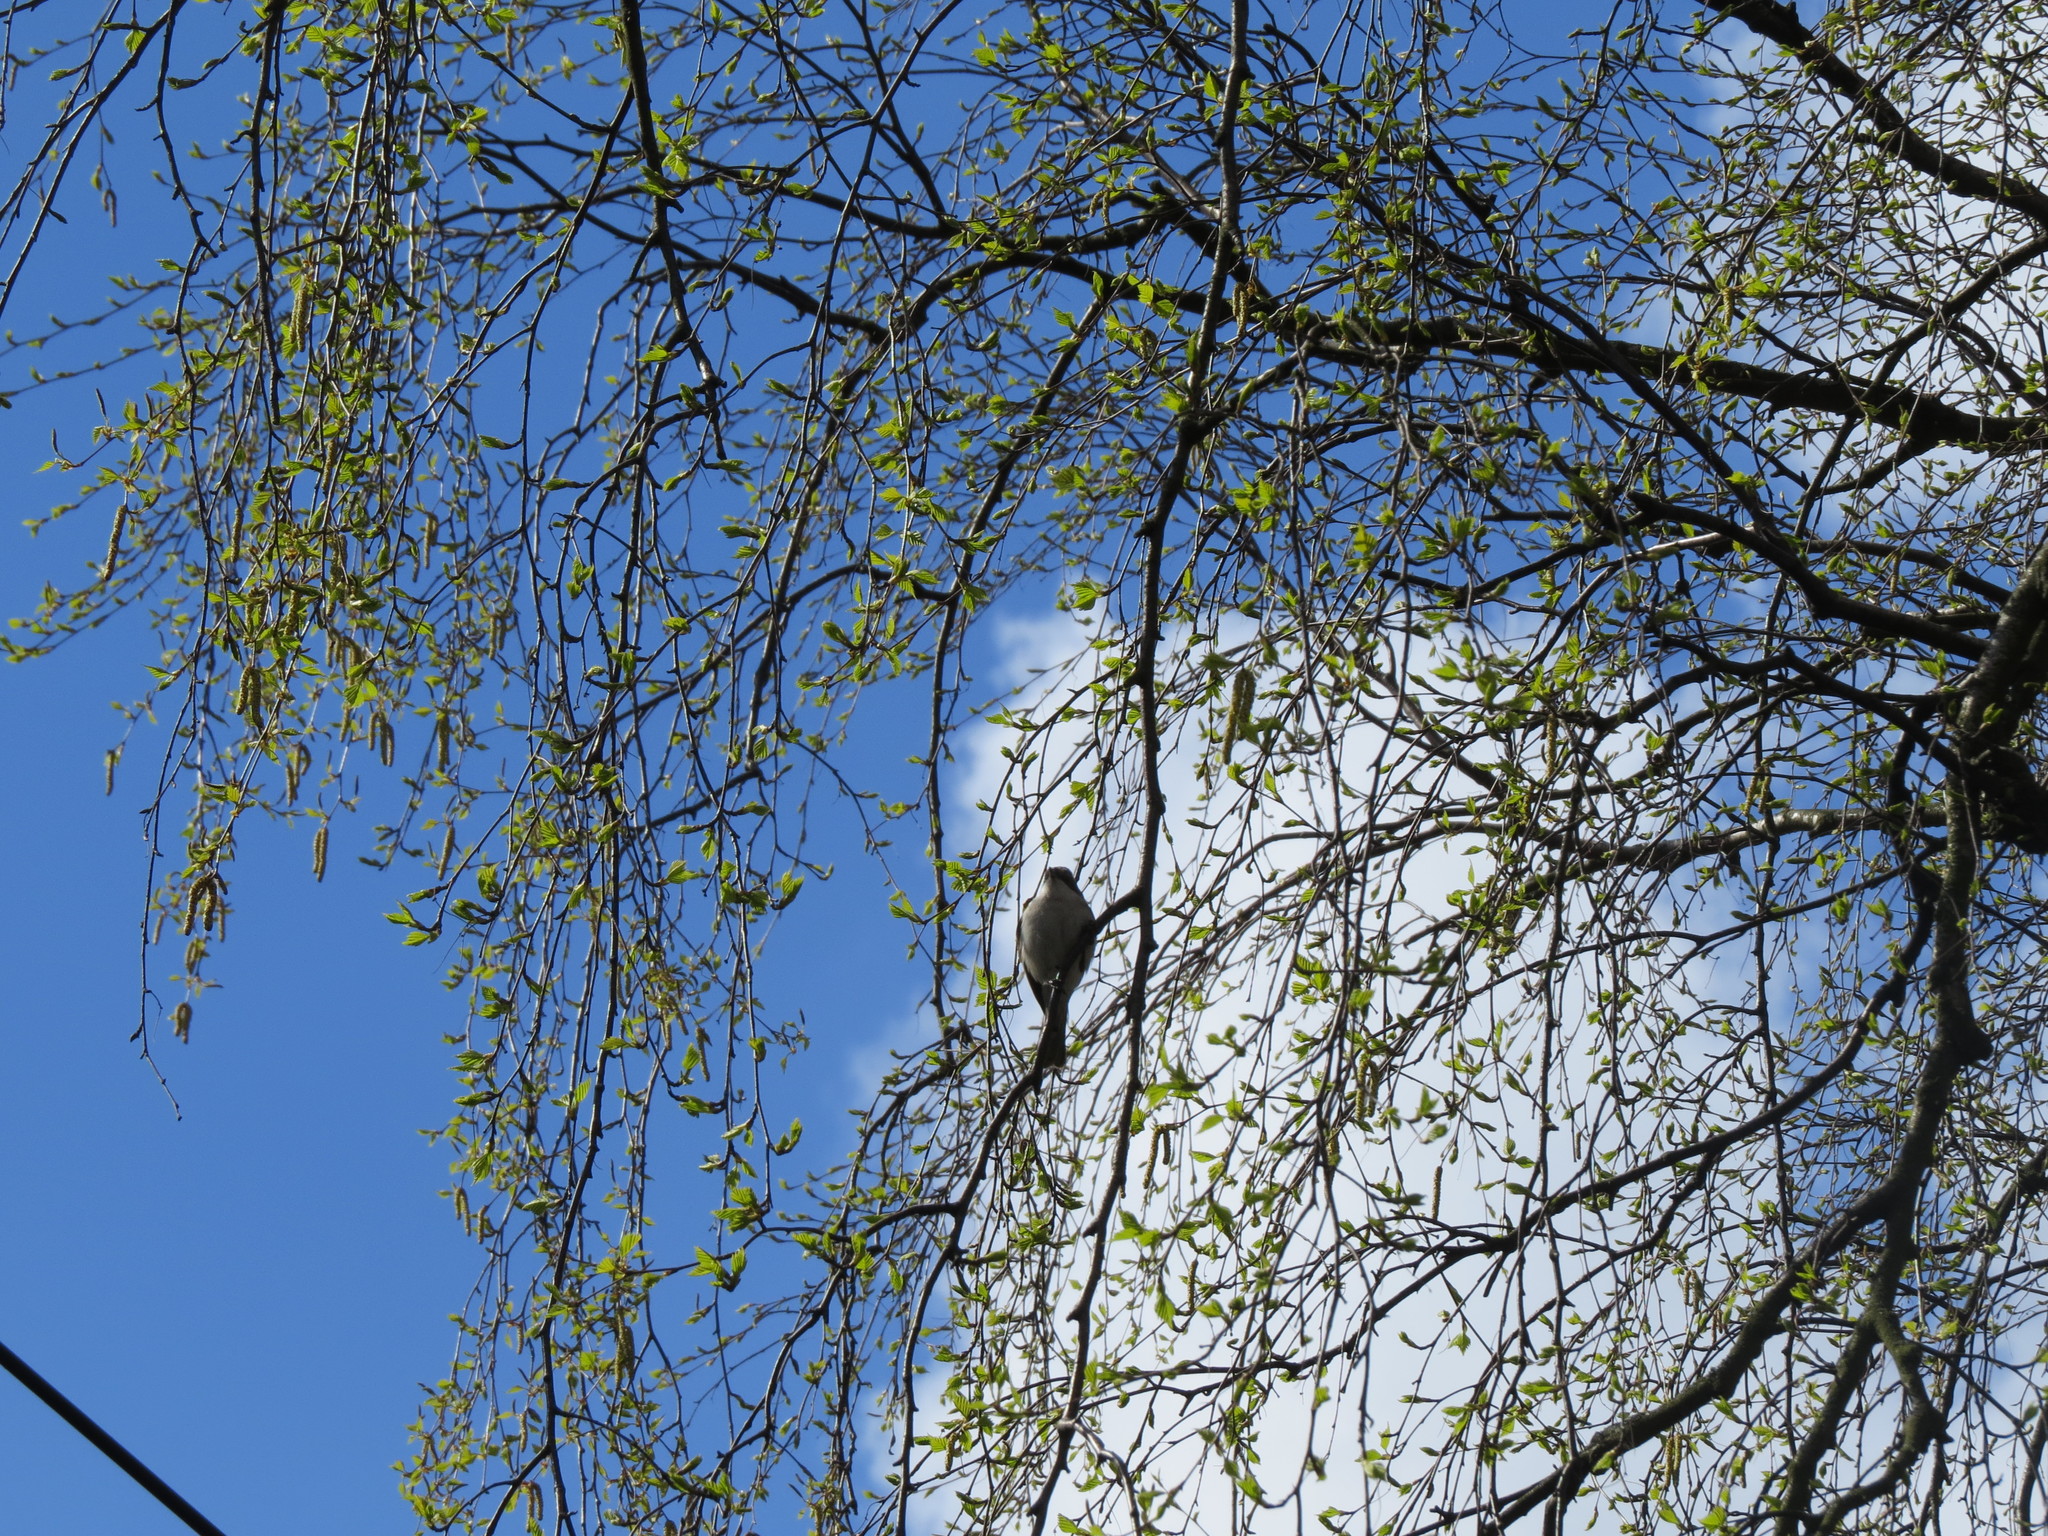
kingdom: Animalia
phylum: Chordata
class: Aves
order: Passeriformes
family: Sylviidae
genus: Sylvia
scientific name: Sylvia curruca
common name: Lesser whitethroat
